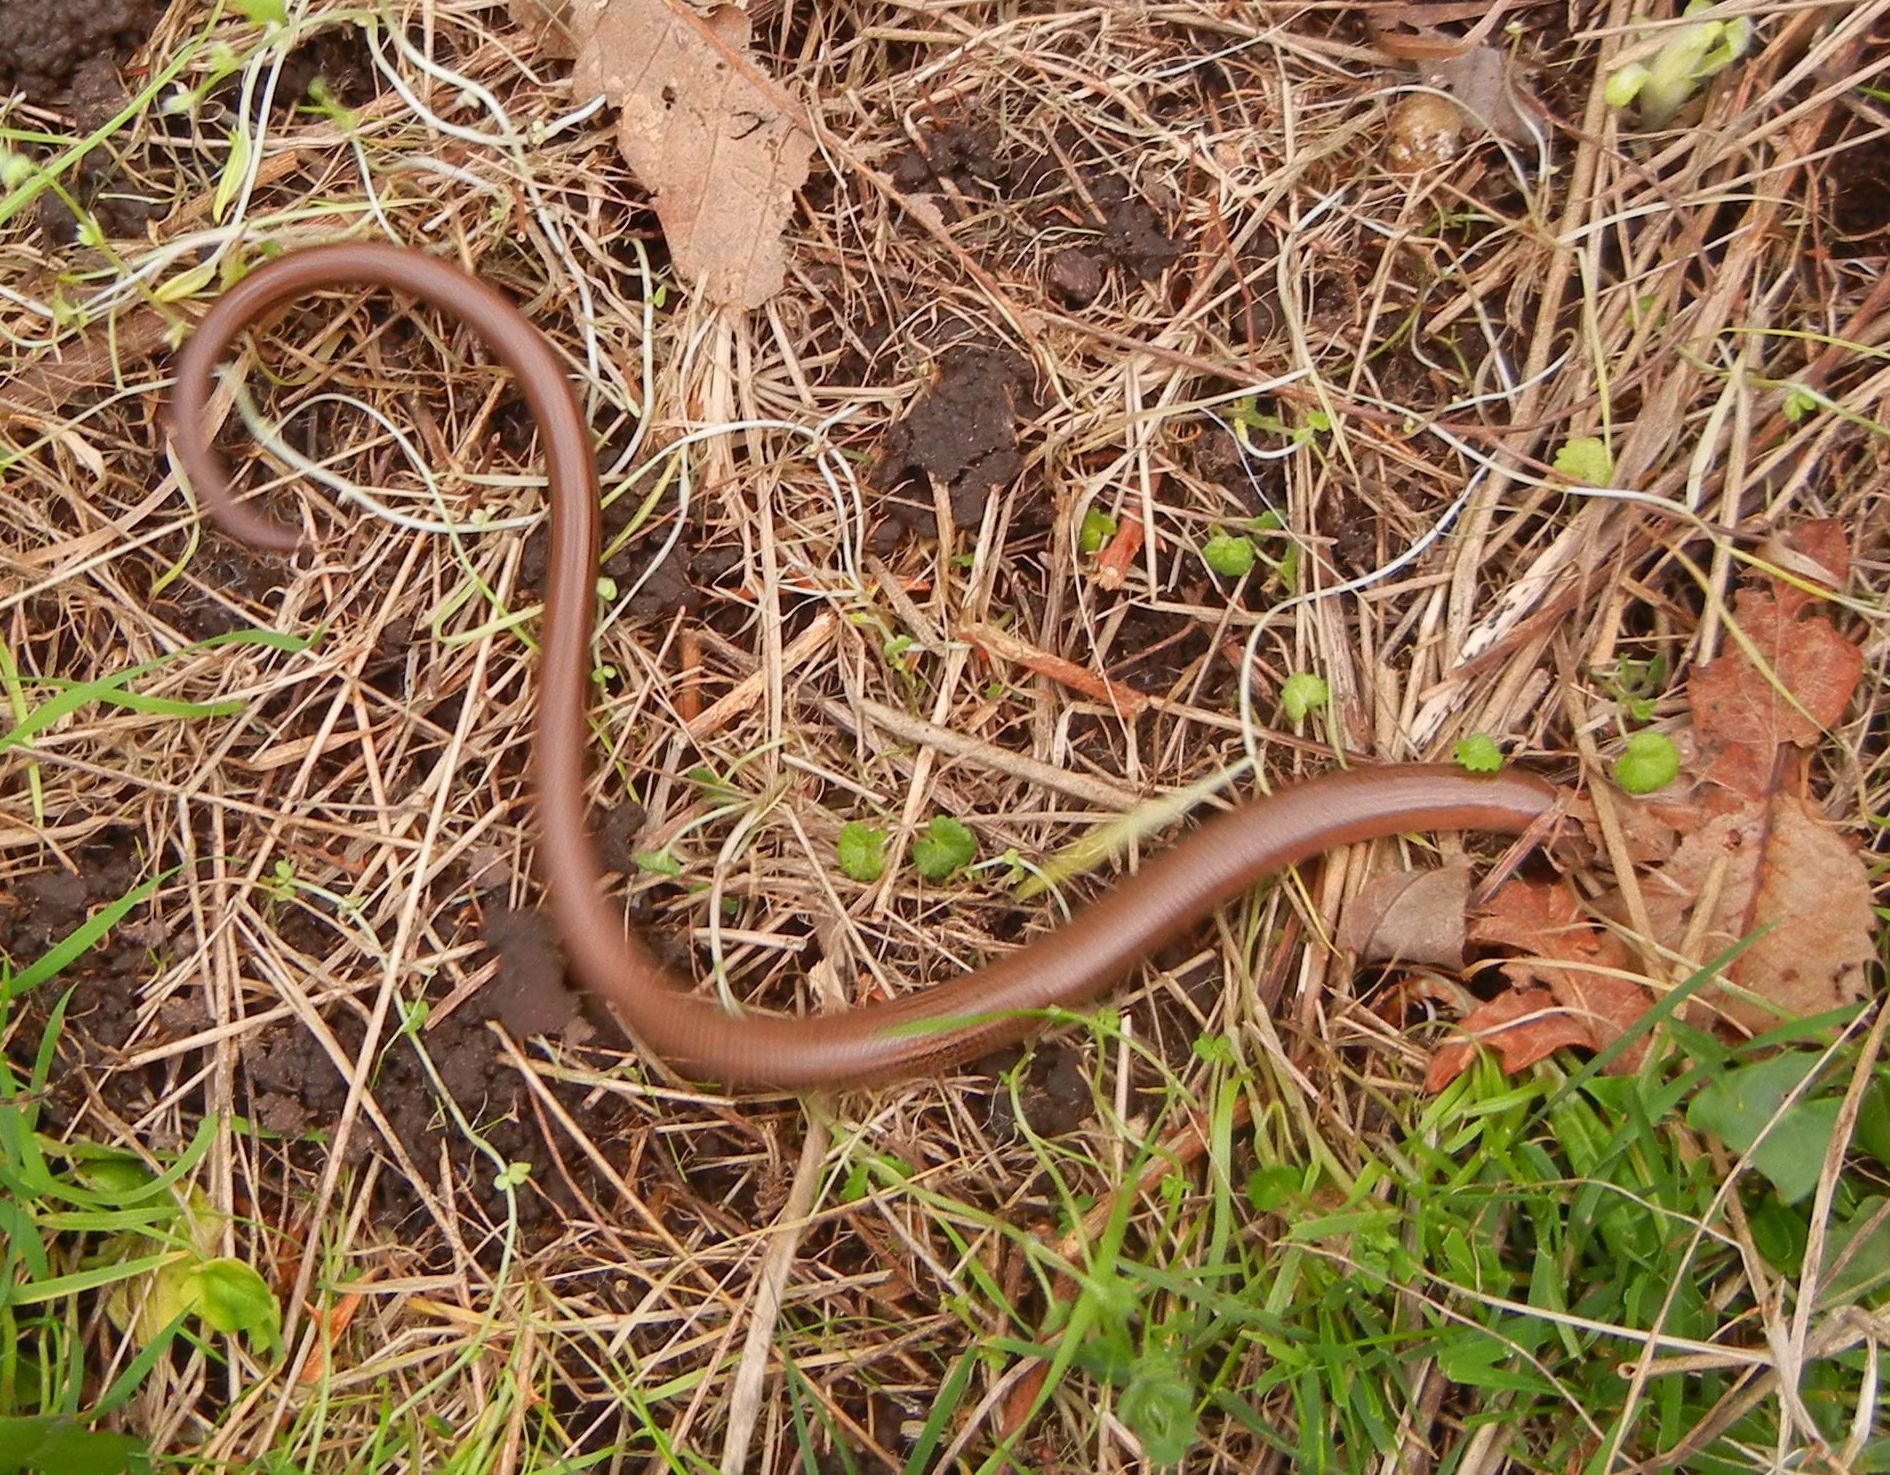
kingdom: Animalia
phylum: Chordata
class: Squamata
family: Anguidae
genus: Anguis
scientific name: Anguis fragilis
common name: Slow worm
